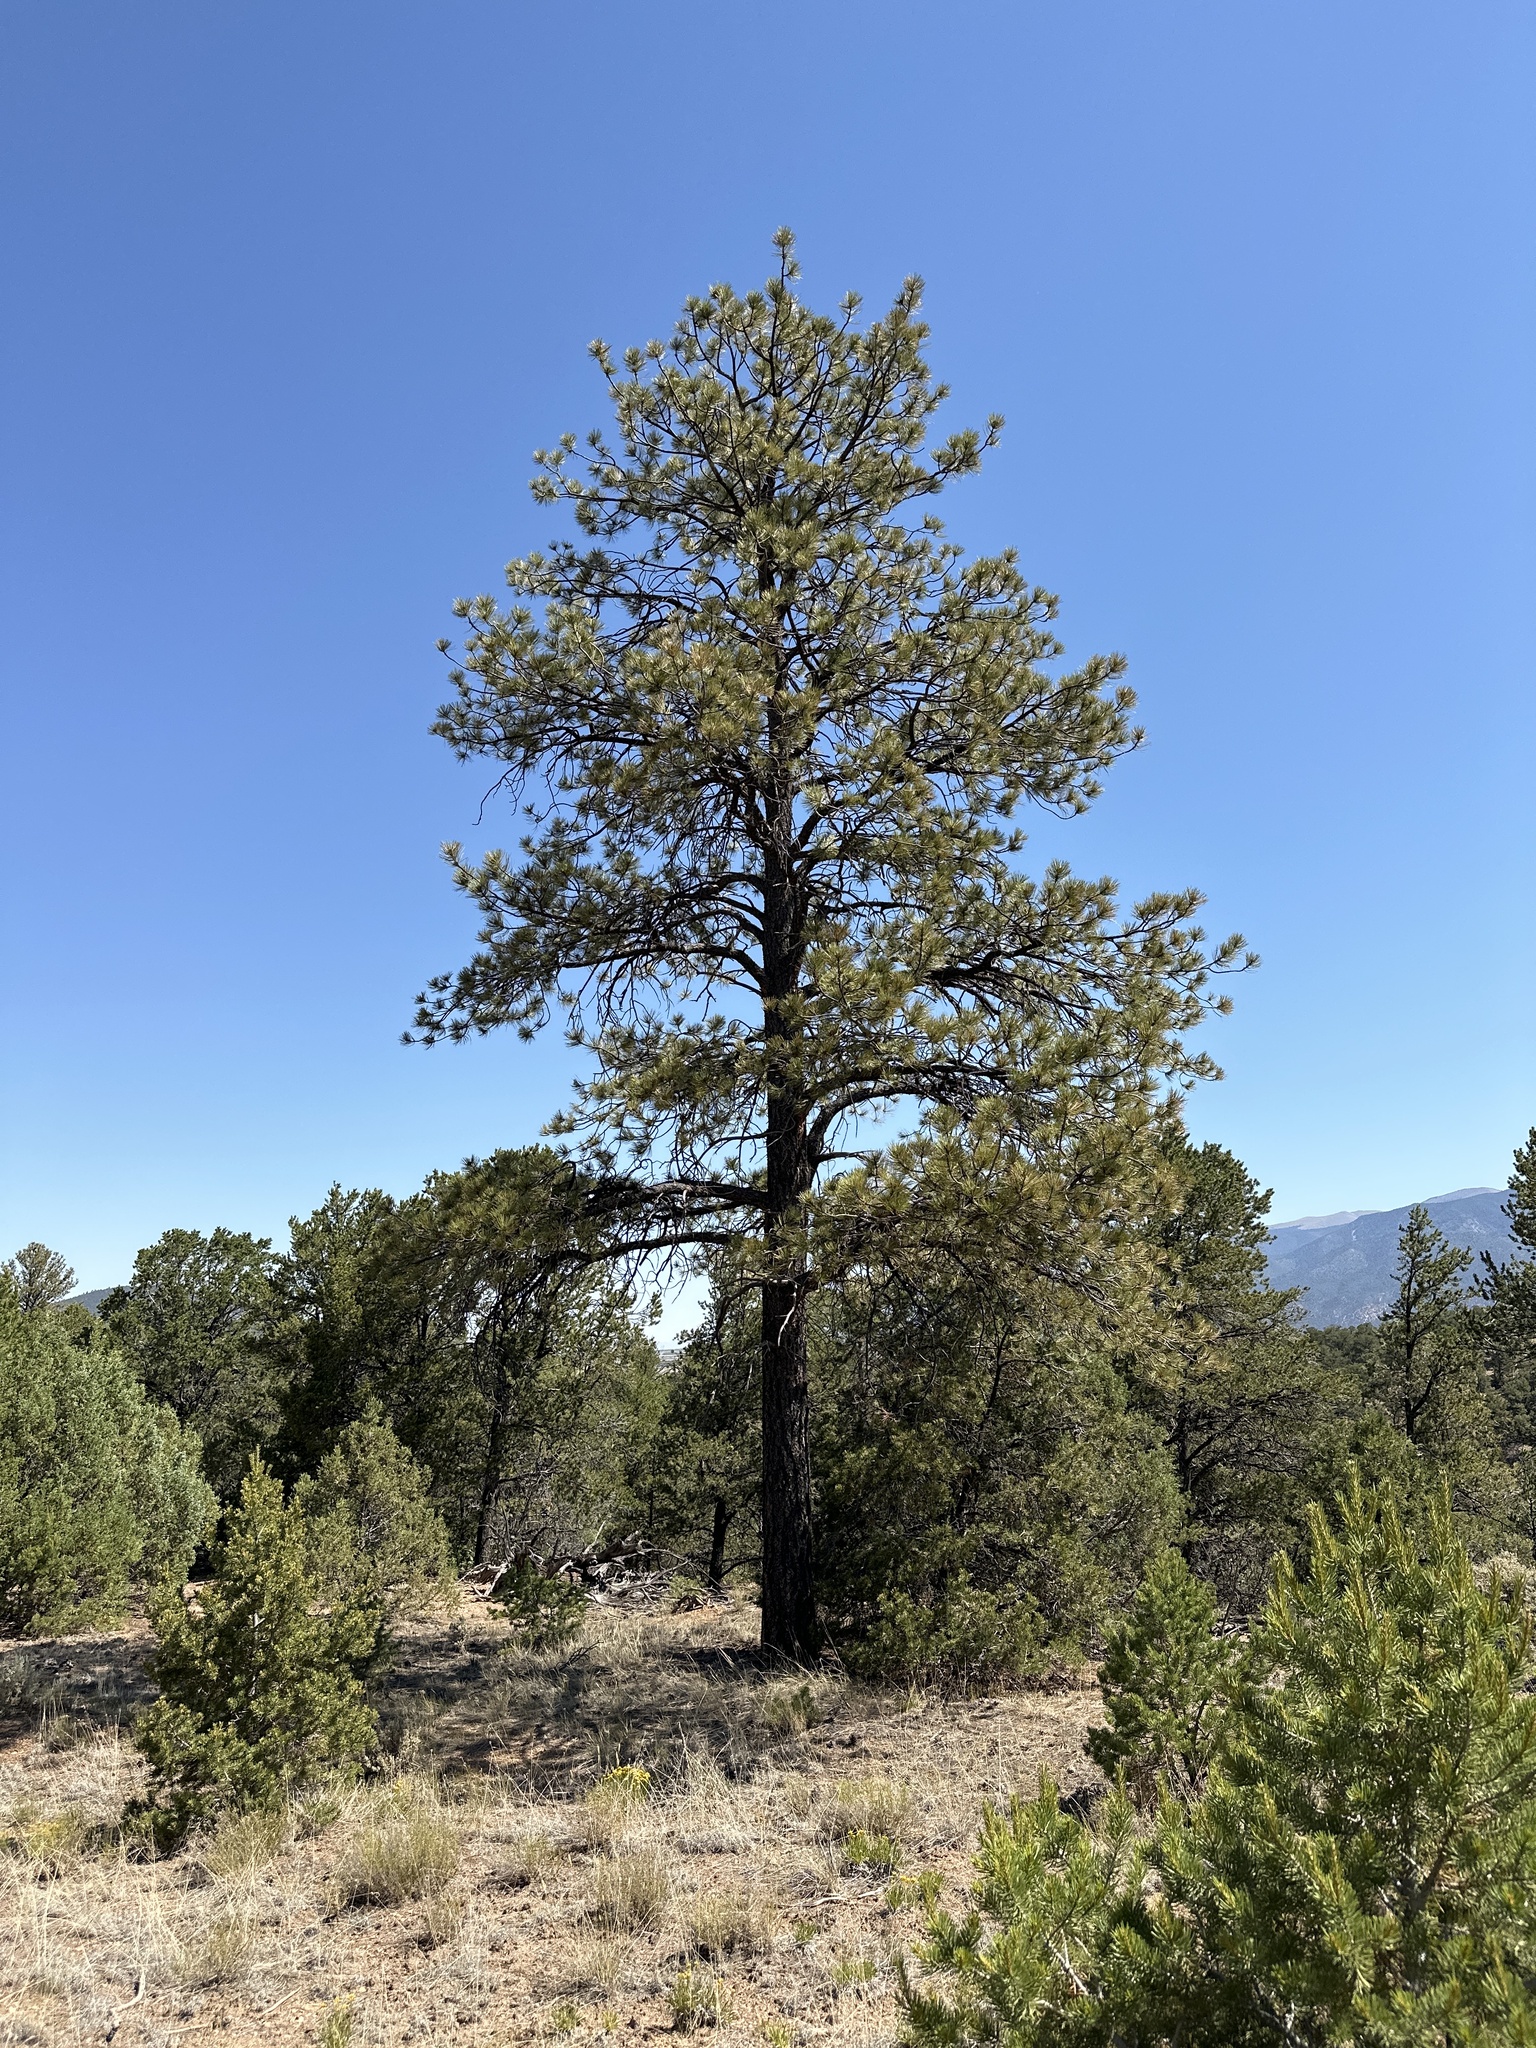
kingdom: Plantae
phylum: Tracheophyta
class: Pinopsida
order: Pinales
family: Pinaceae
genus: Pinus
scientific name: Pinus ponderosa
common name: Western yellow-pine
